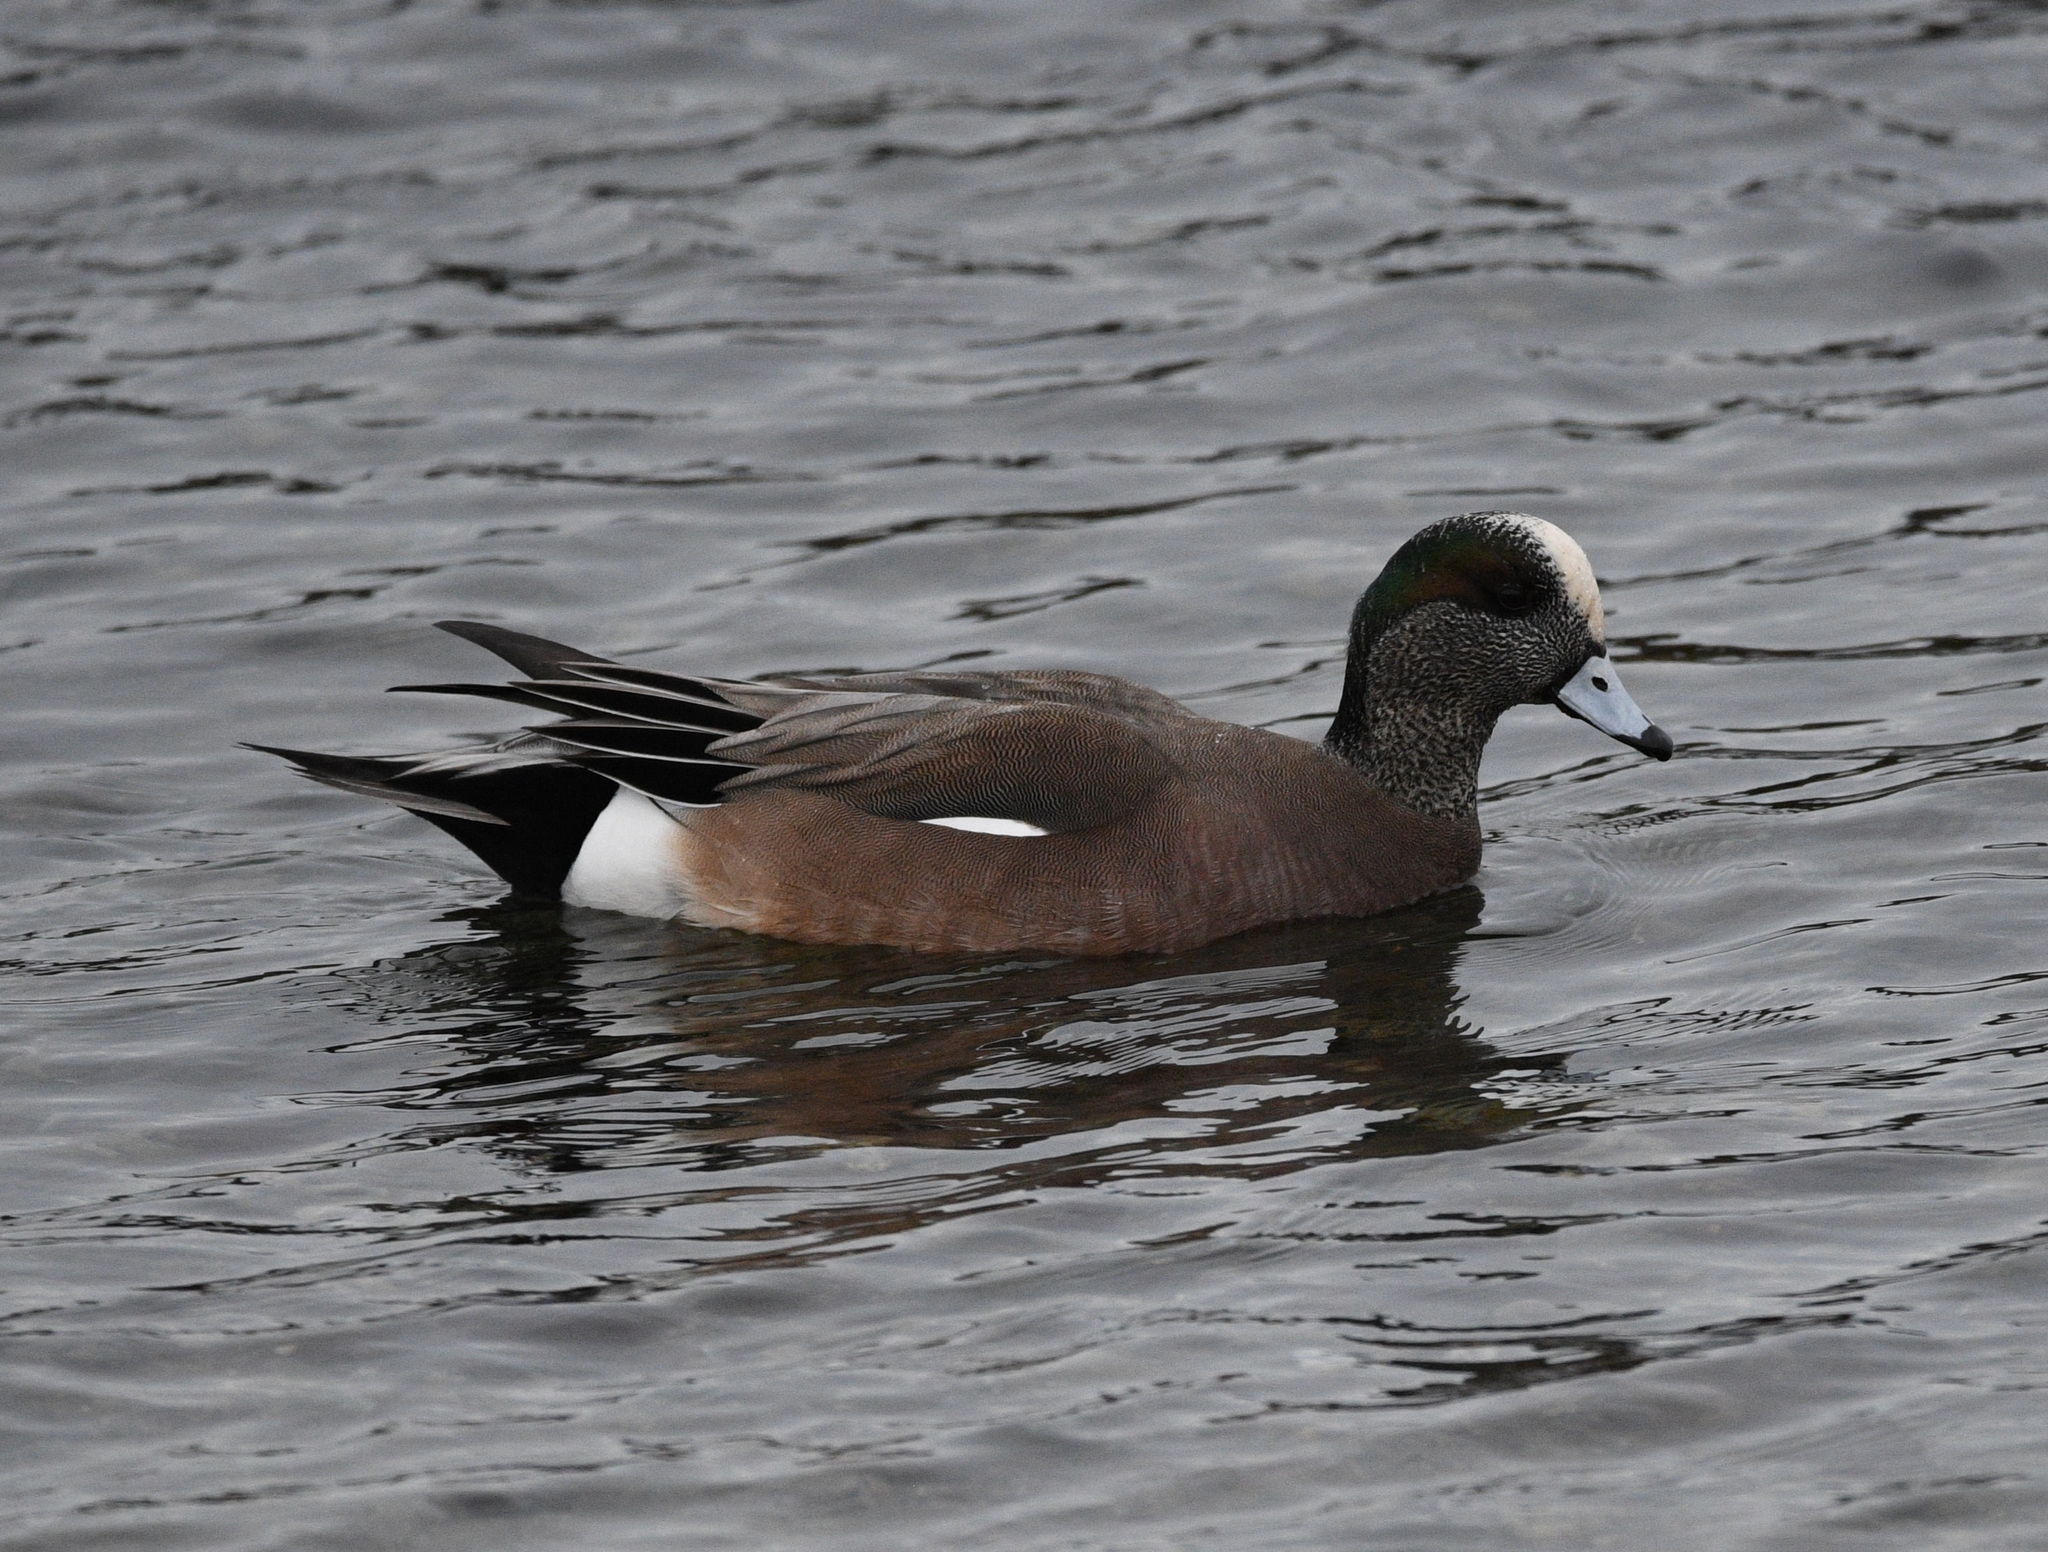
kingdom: Animalia
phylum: Chordata
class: Aves
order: Anseriformes
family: Anatidae
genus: Mareca
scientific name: Mareca americana
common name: American wigeon
